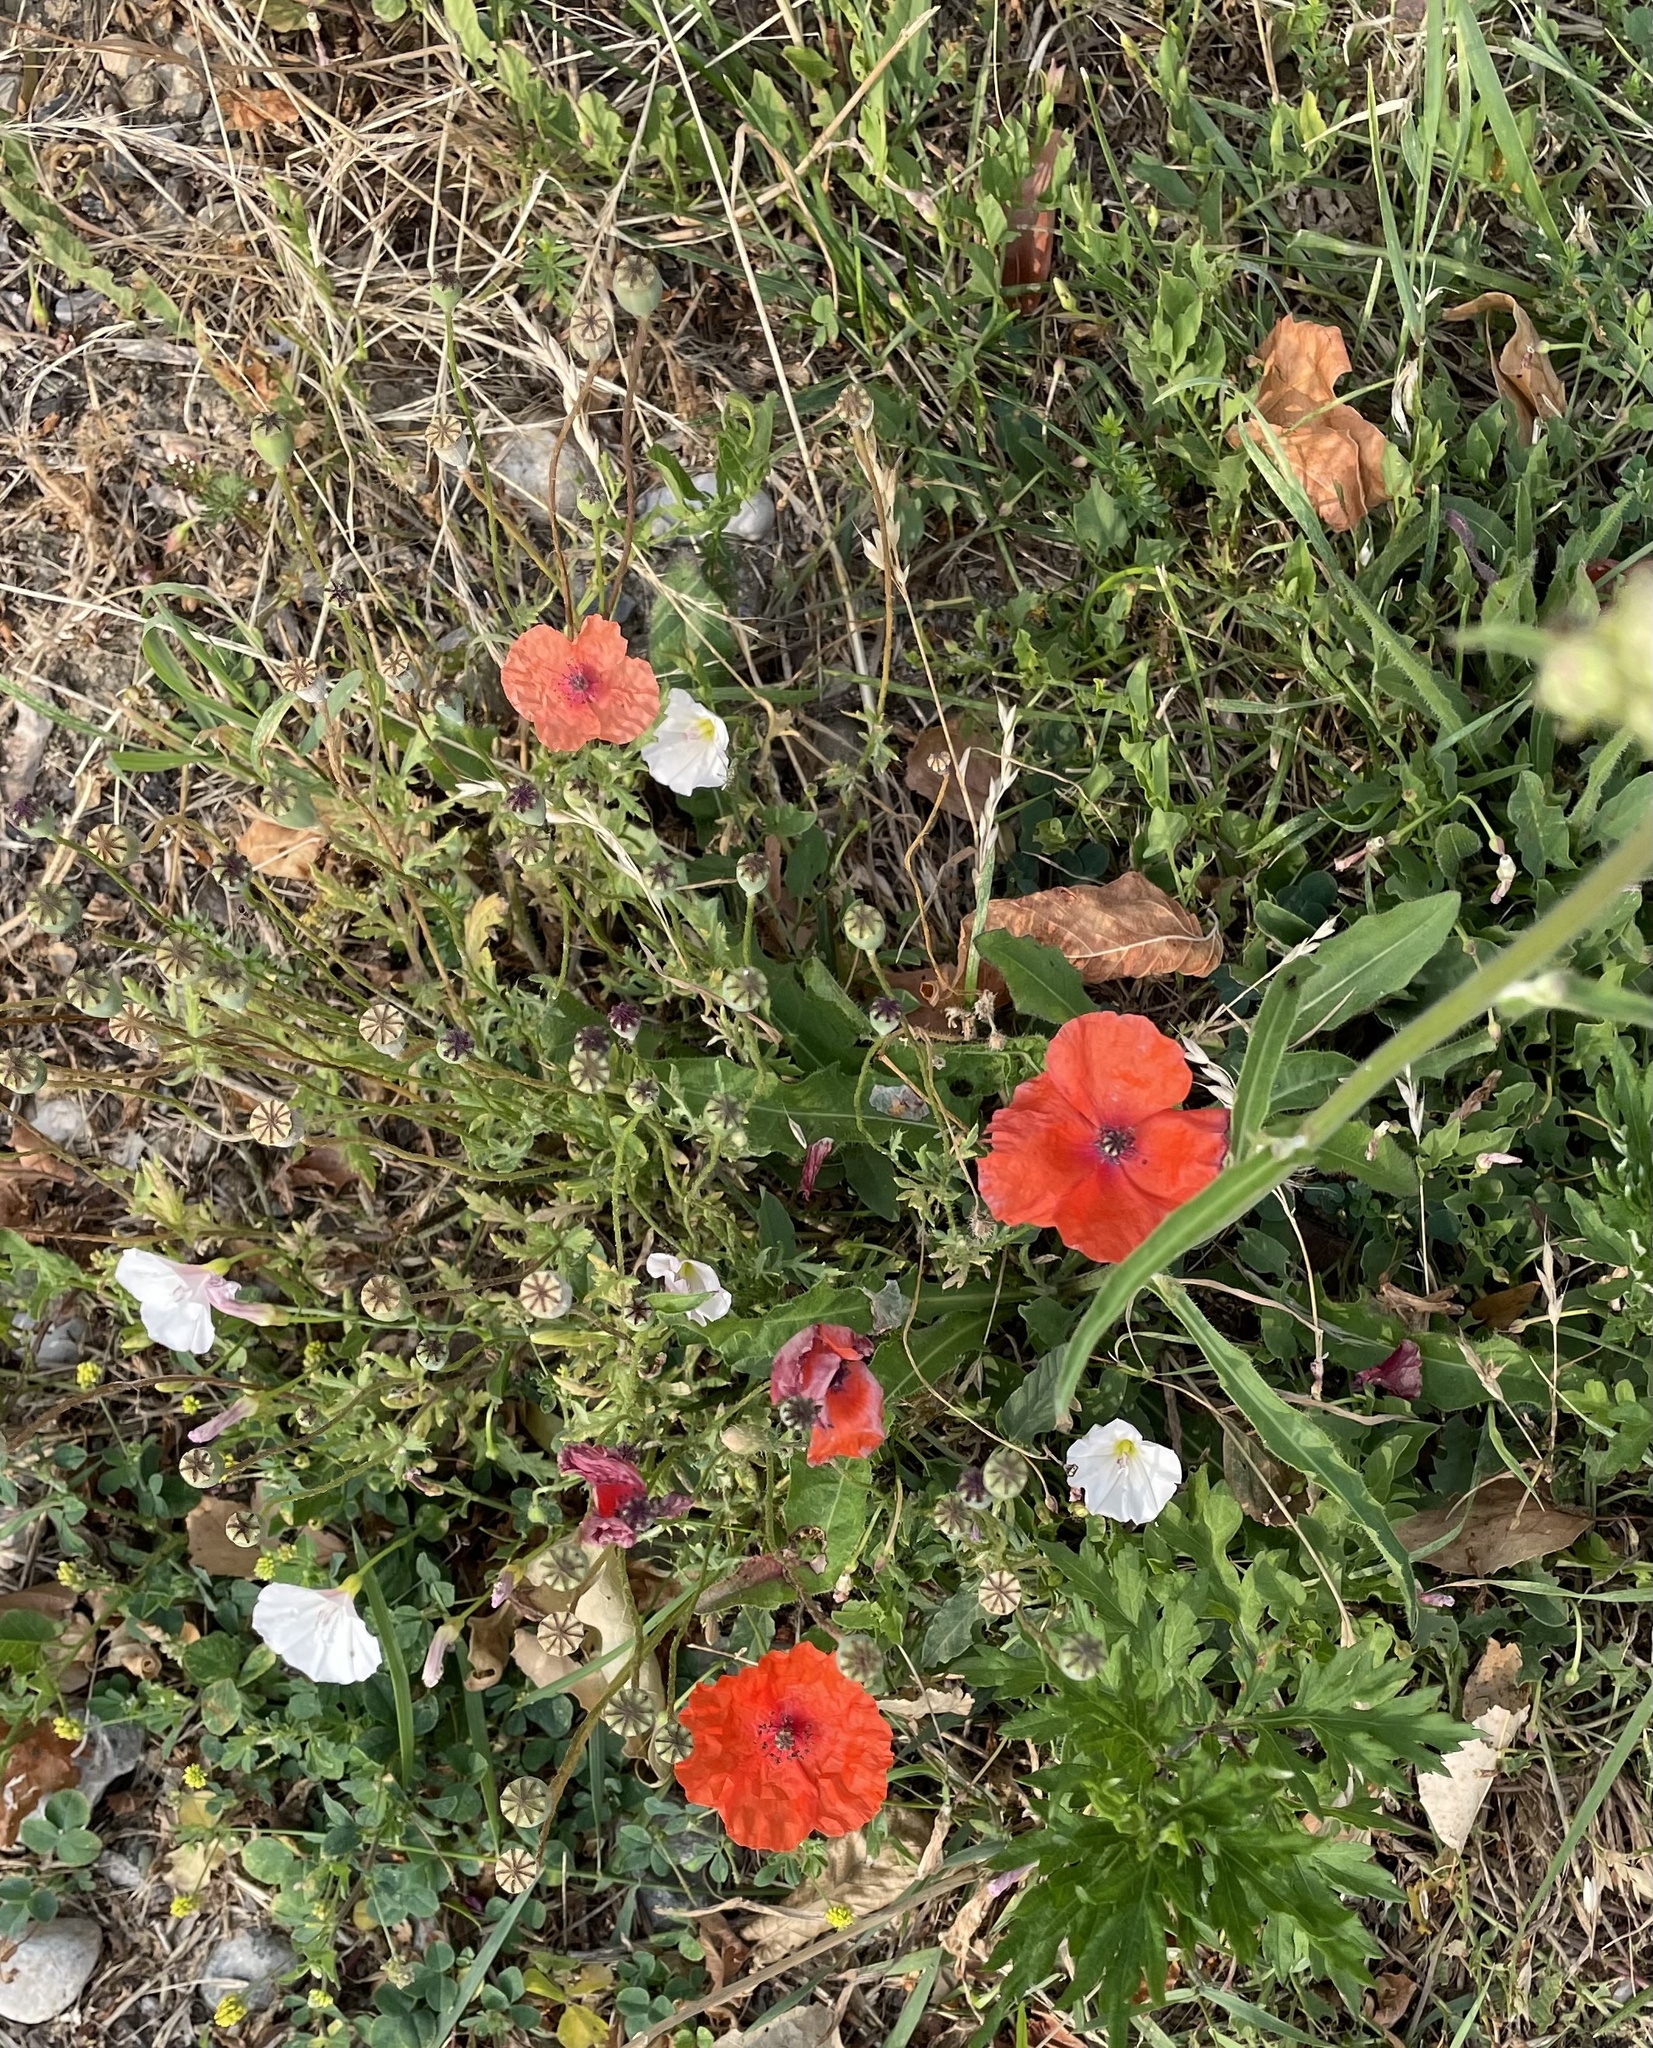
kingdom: Plantae
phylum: Tracheophyta
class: Magnoliopsida
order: Ranunculales
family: Papaveraceae
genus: Papaver
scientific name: Papaver rhoeas
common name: Corn poppy
